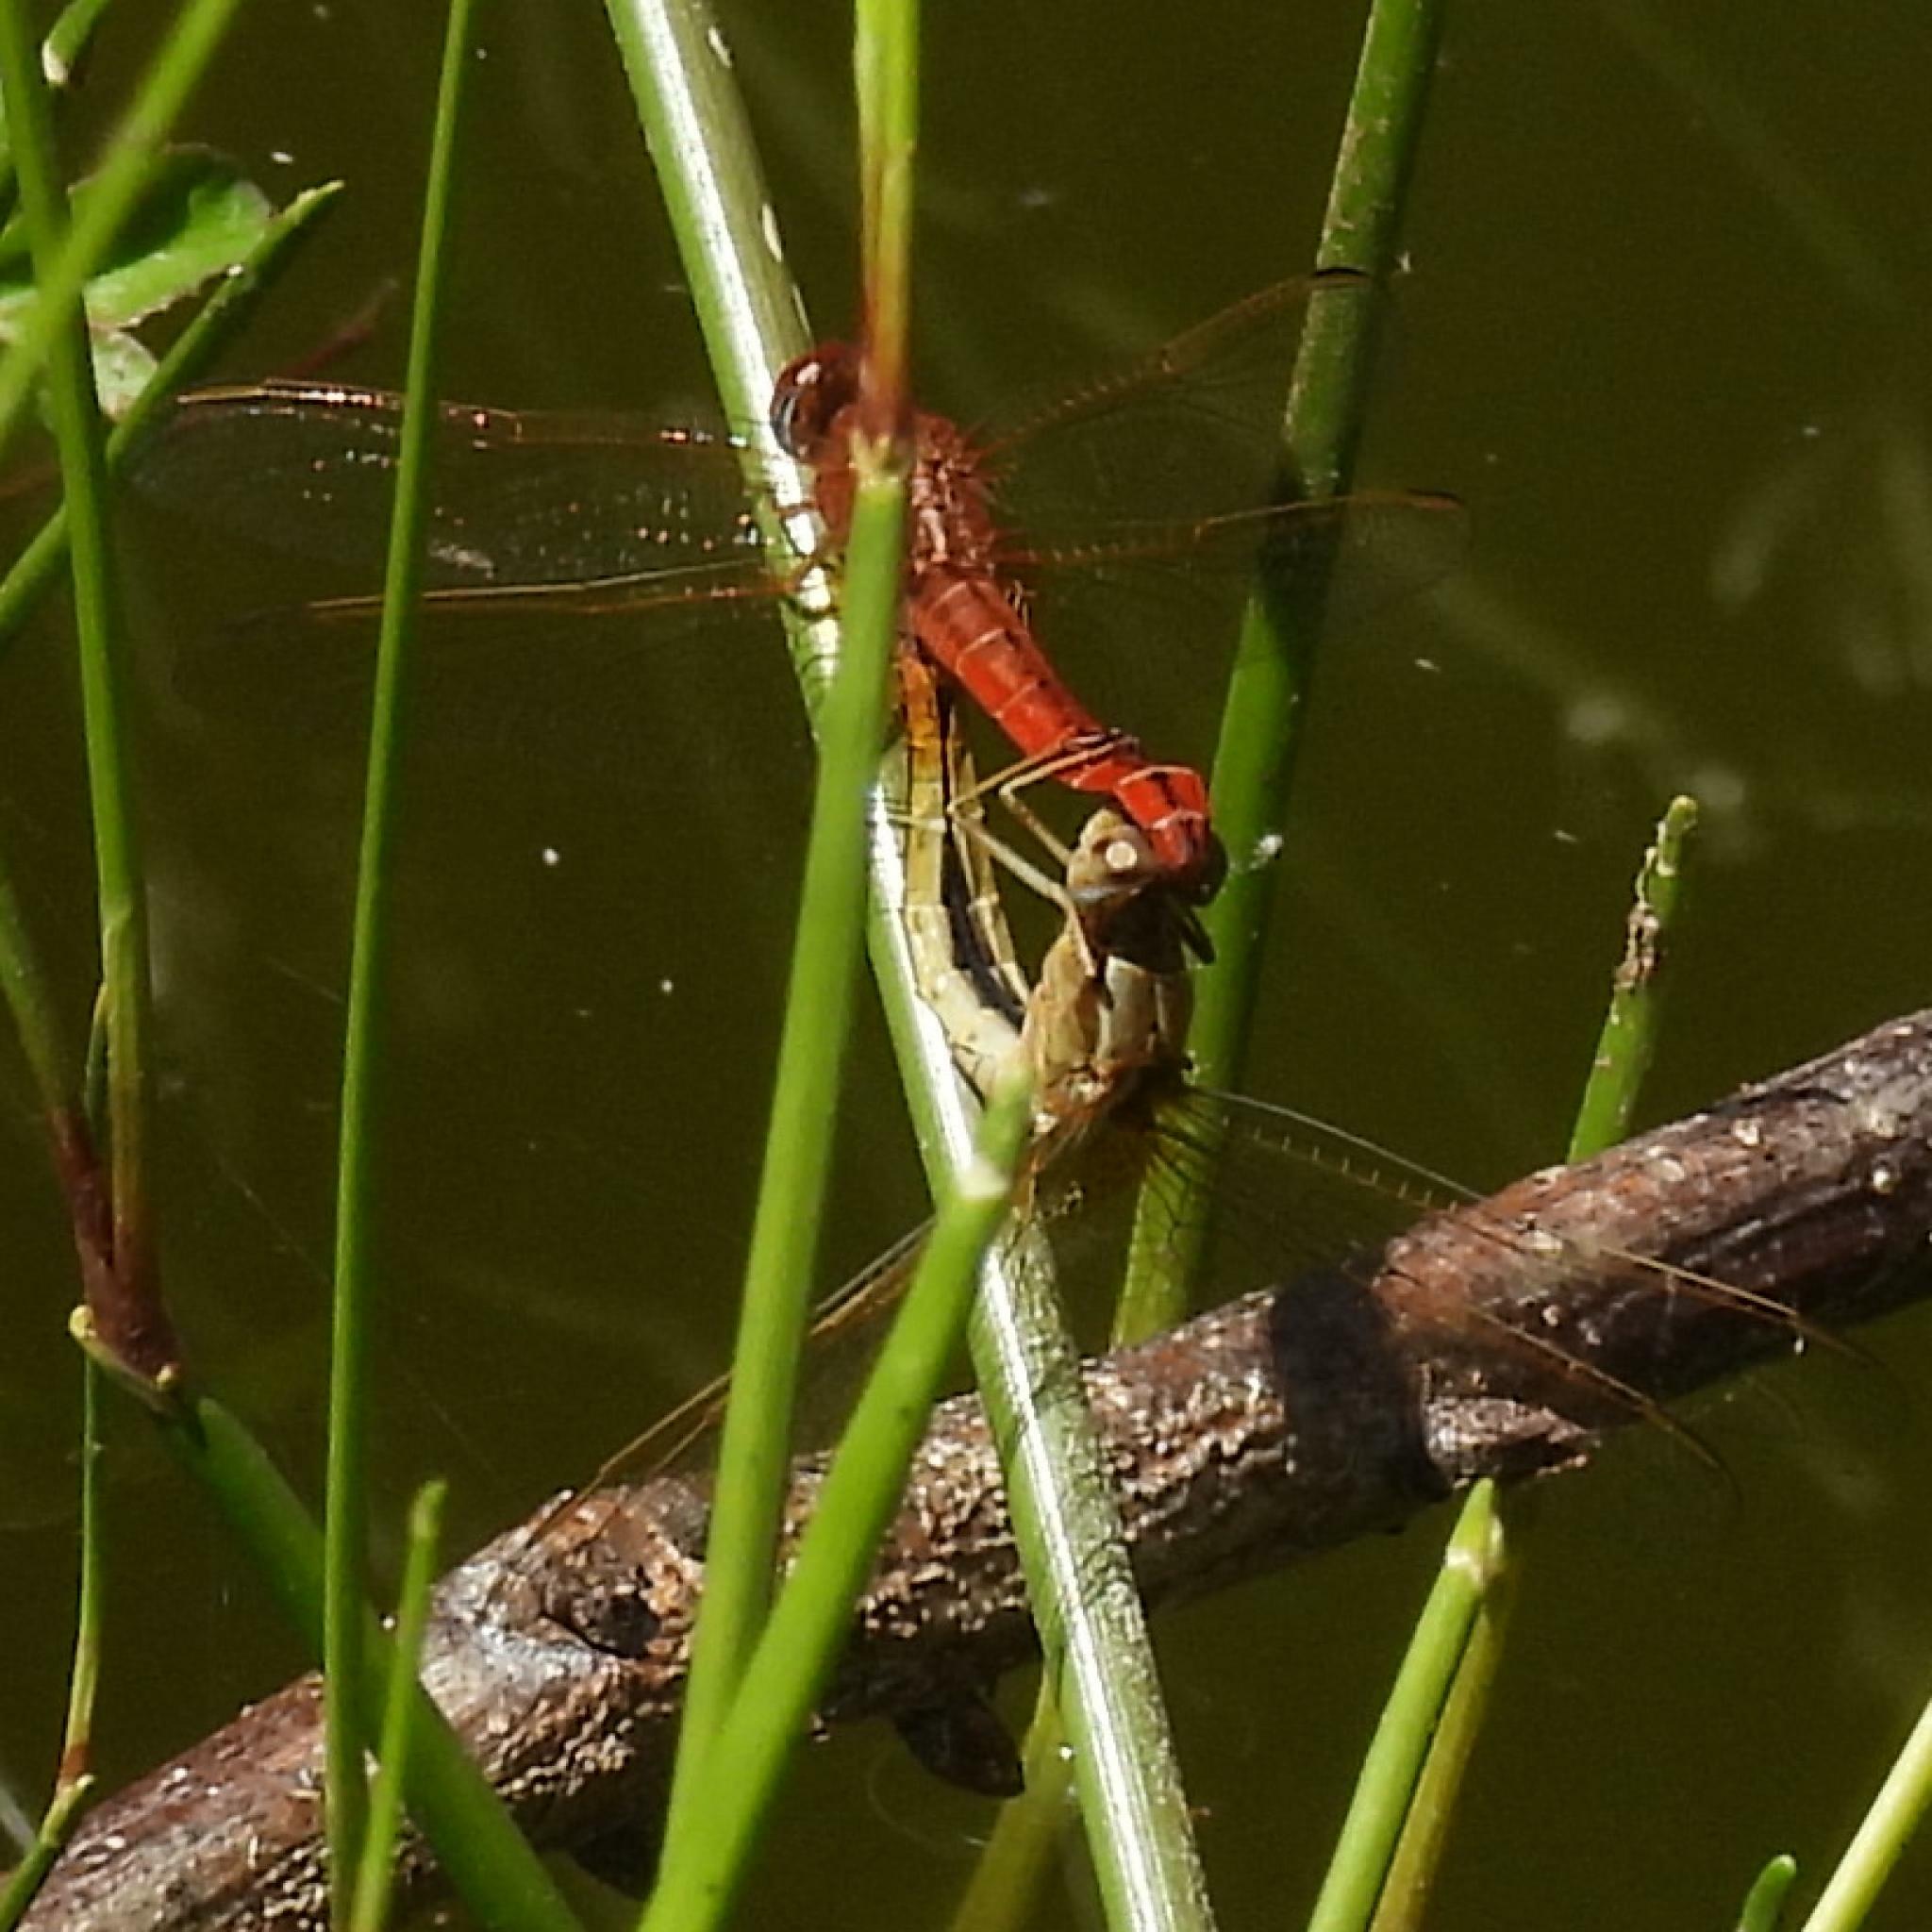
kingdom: Animalia
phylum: Arthropoda
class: Insecta
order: Odonata
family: Libellulidae
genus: Crocothemis
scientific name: Crocothemis erythraea
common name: Scarlet dragonfly
